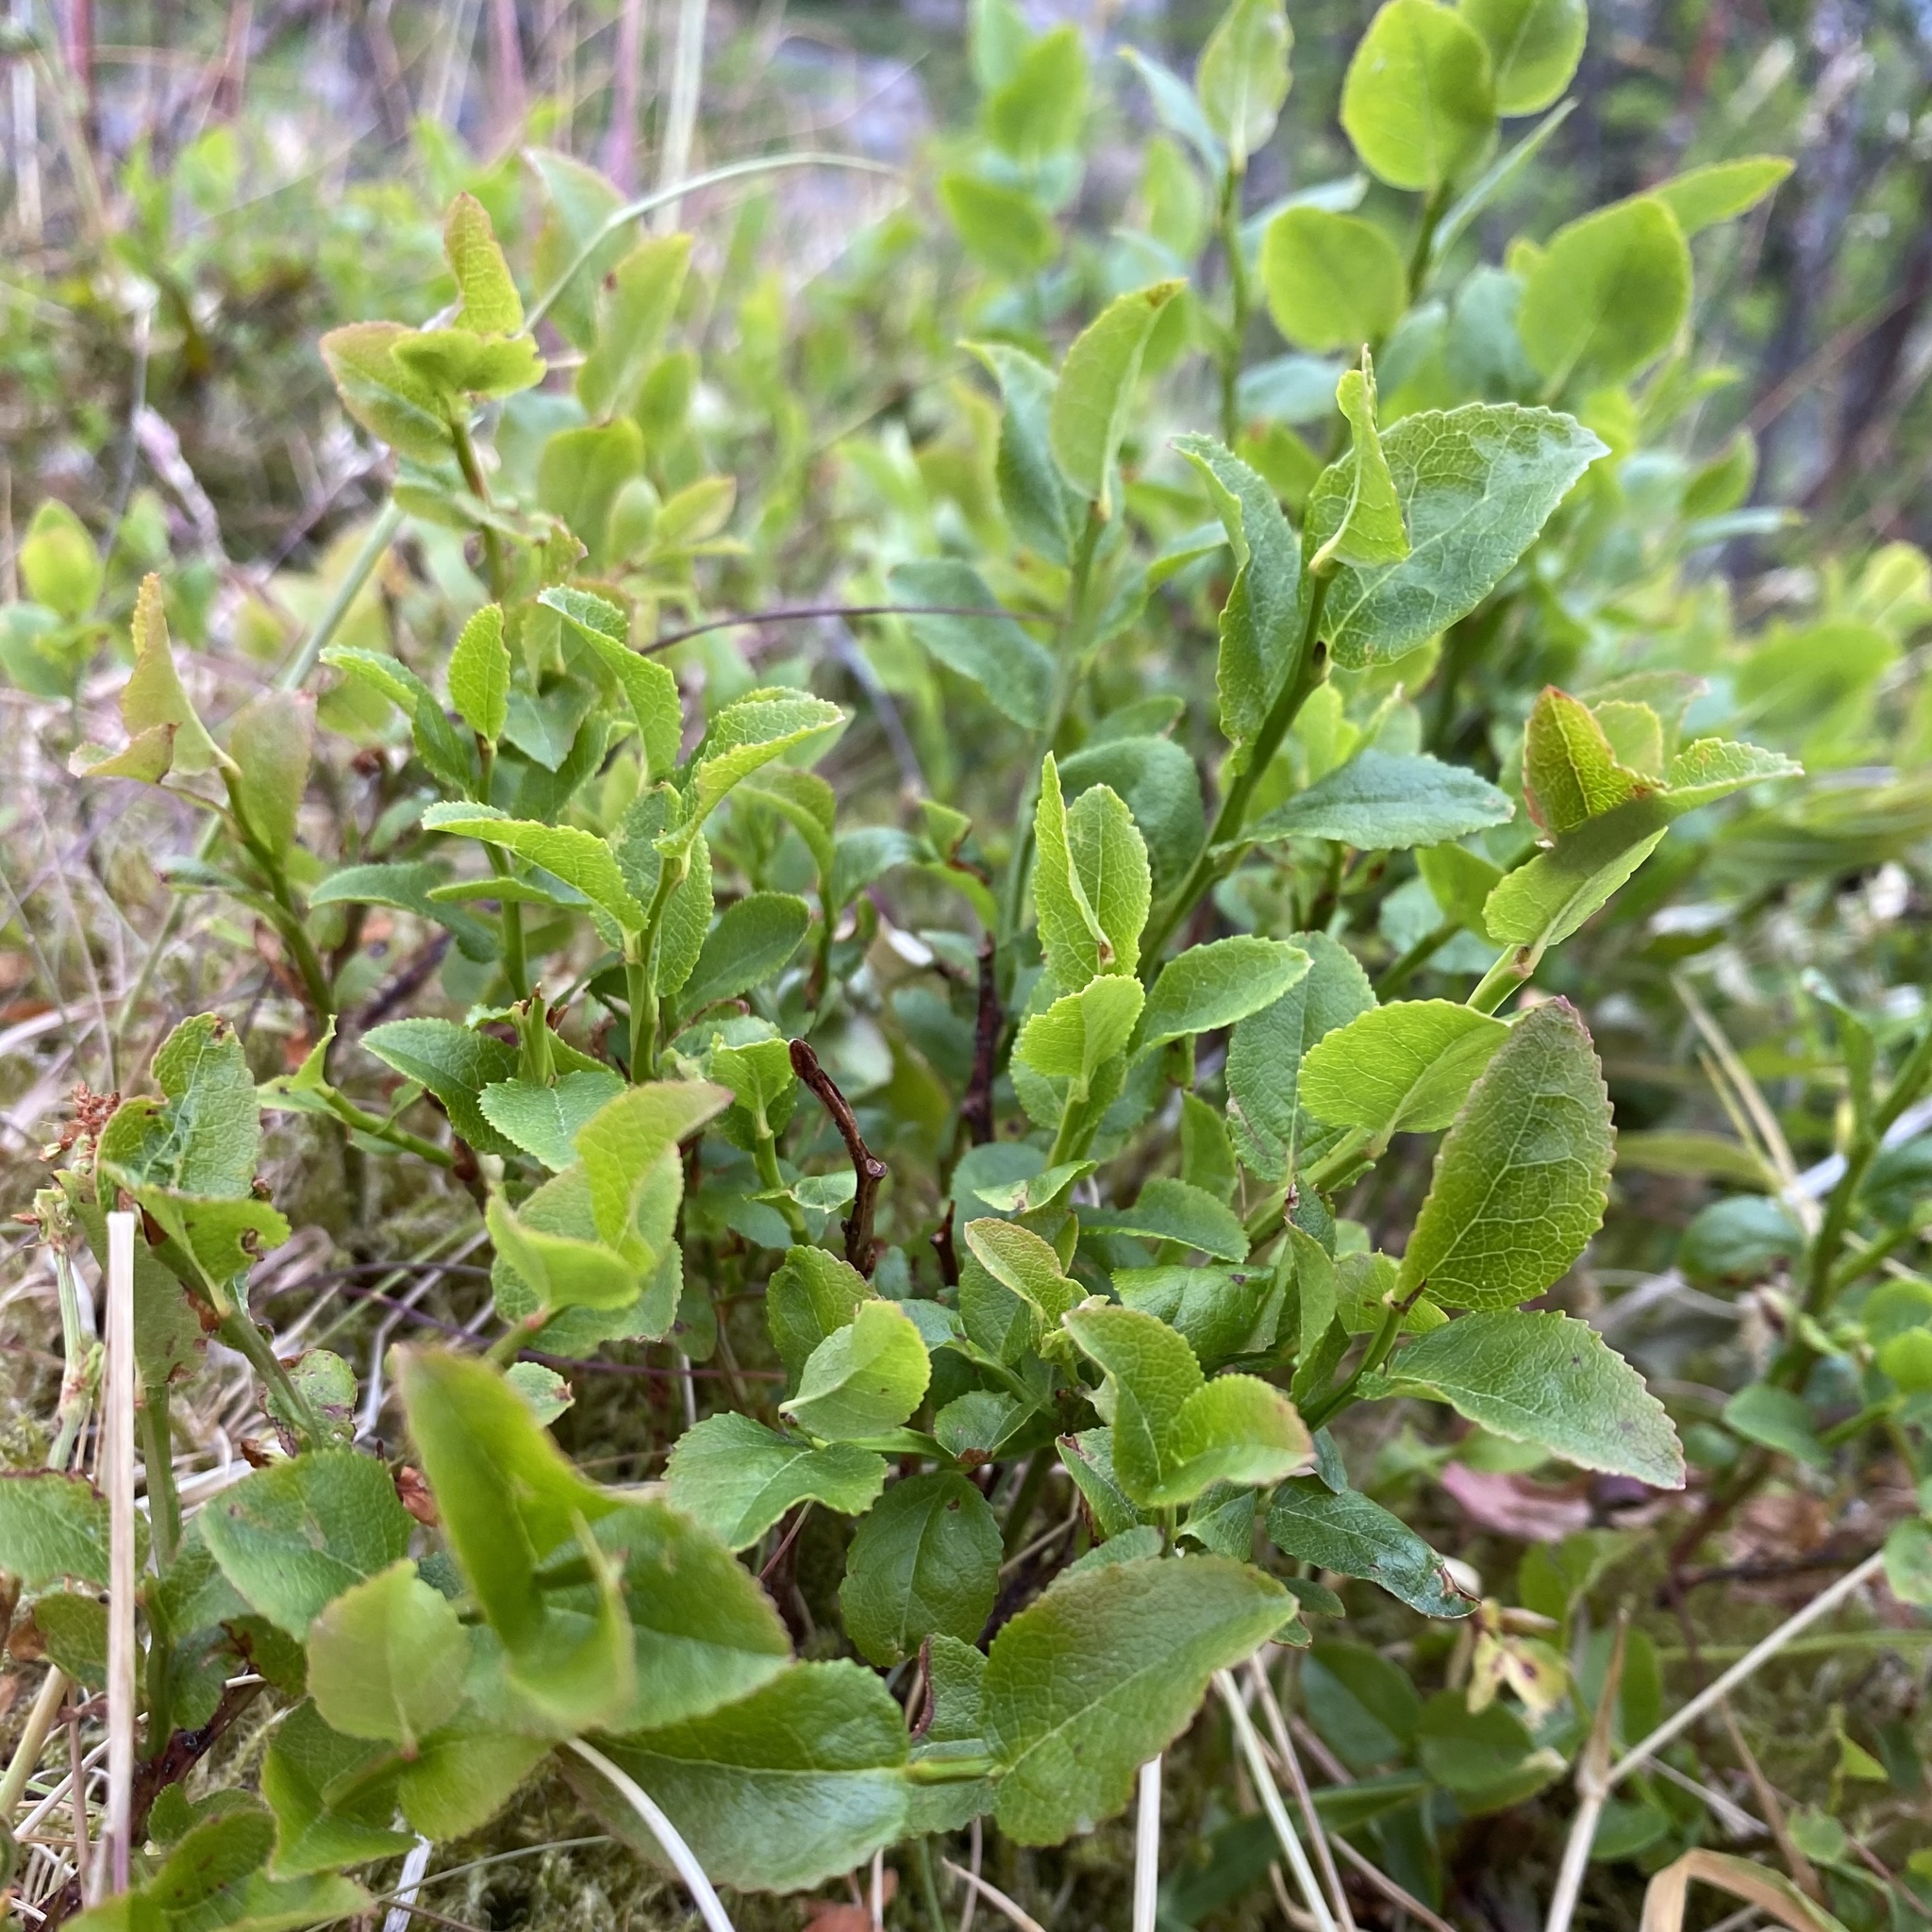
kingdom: Plantae
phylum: Tracheophyta
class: Magnoliopsida
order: Ericales
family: Ericaceae
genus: Vaccinium
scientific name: Vaccinium myrtillus
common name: Bilberry
